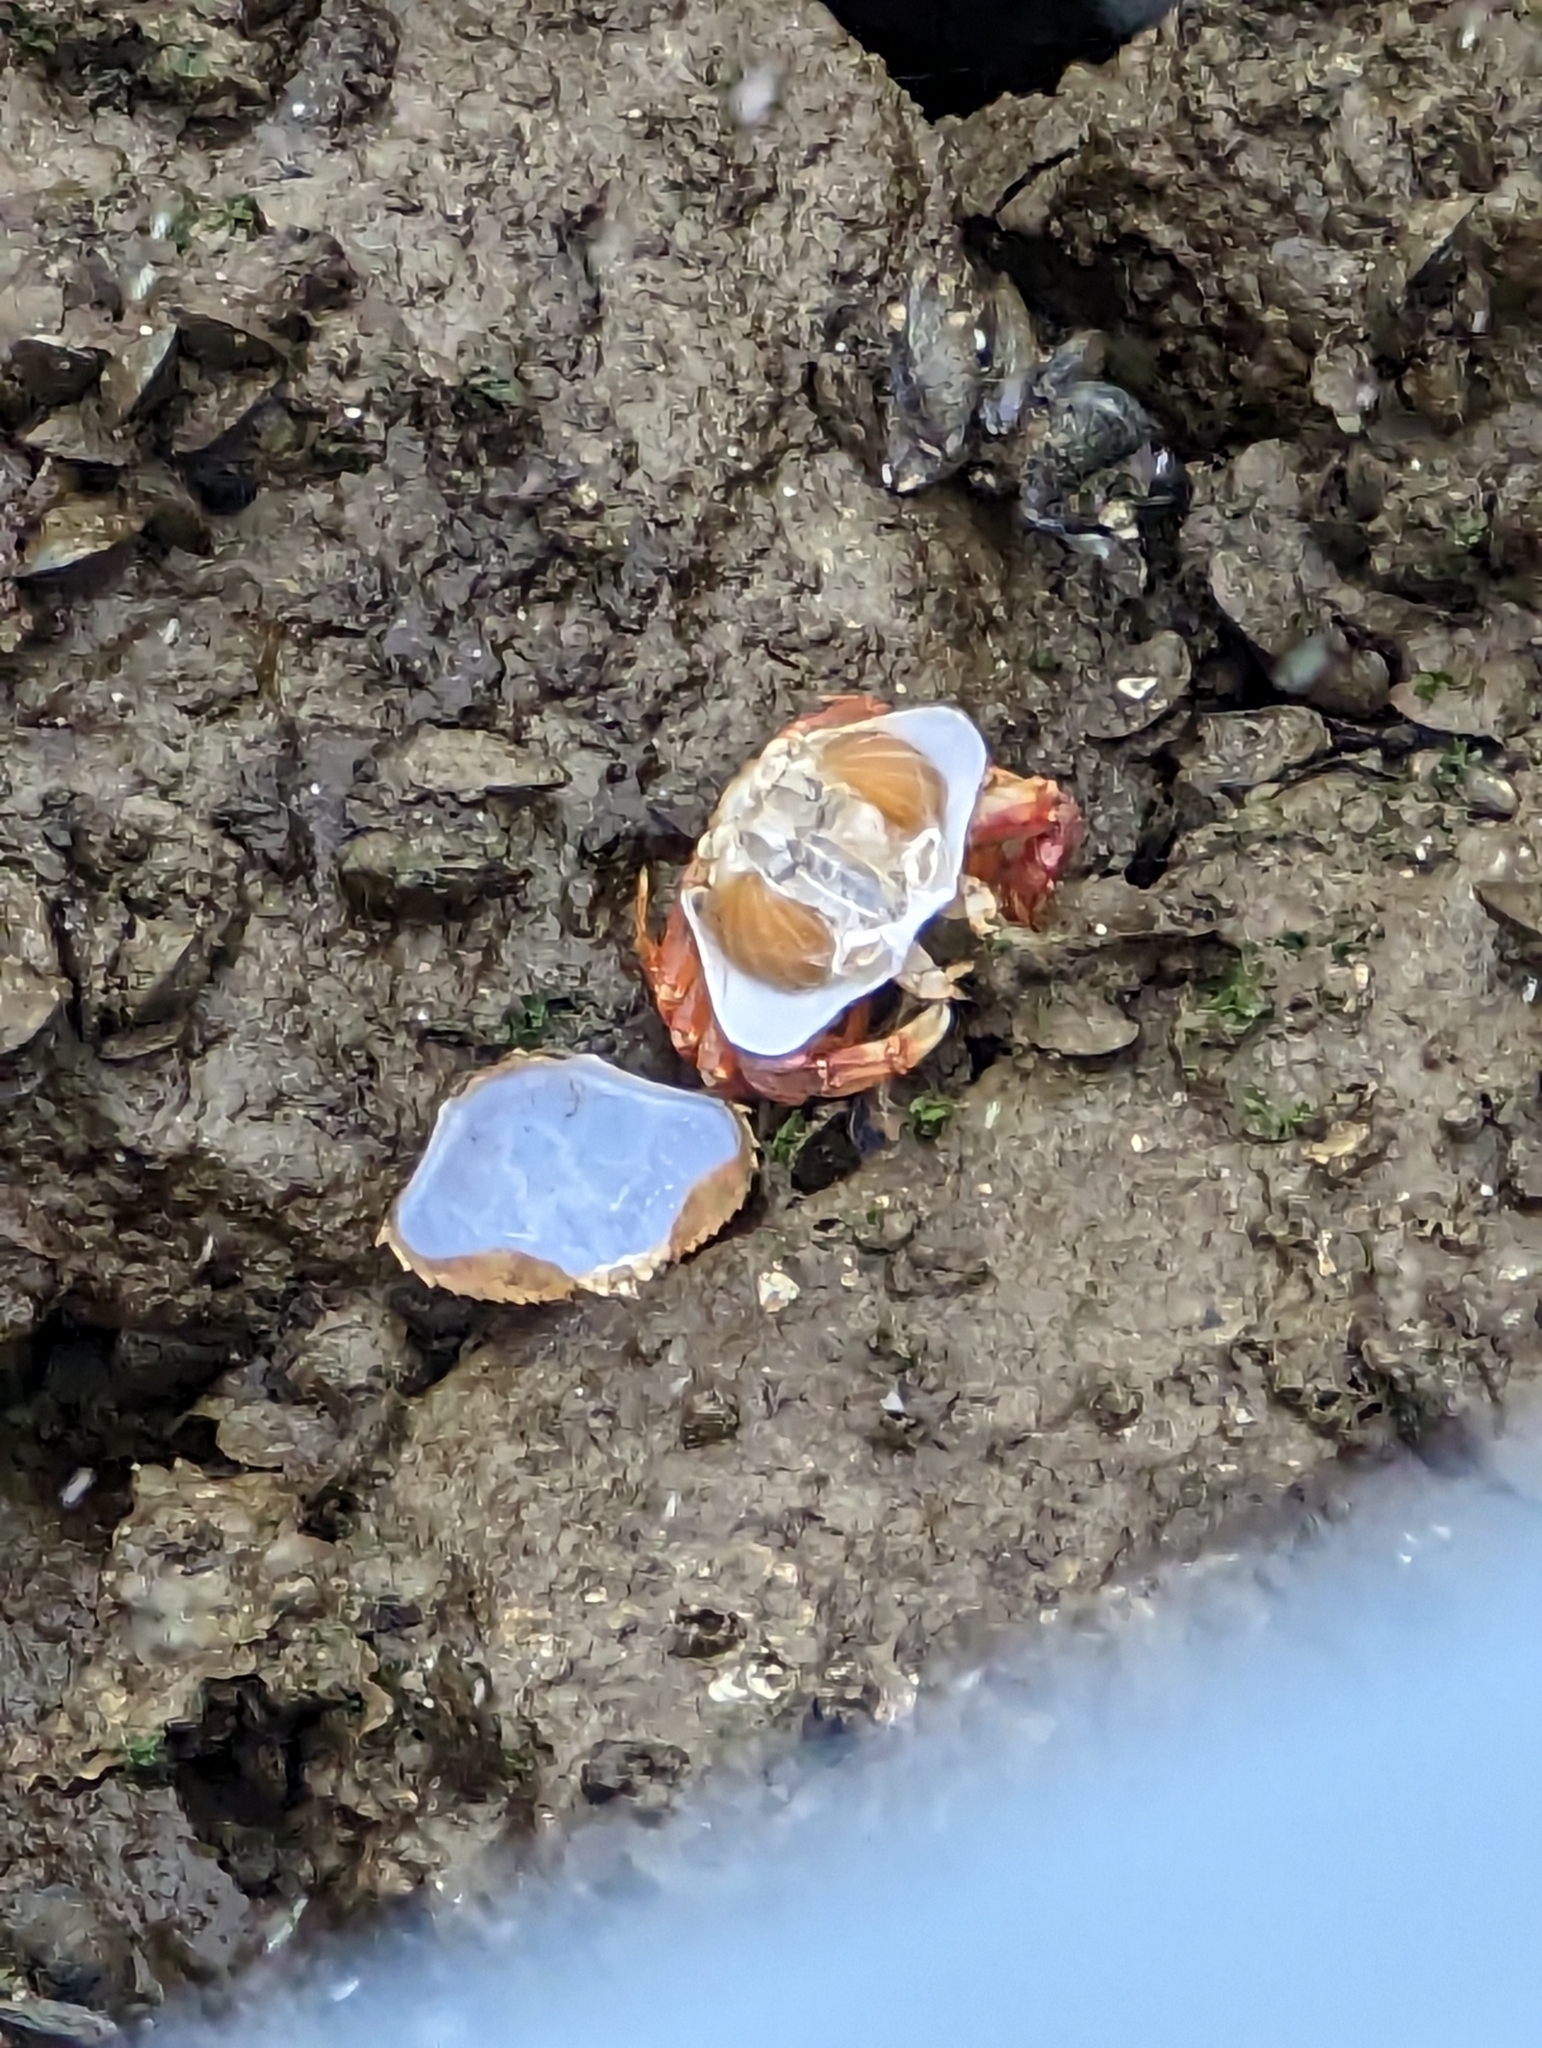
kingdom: Animalia
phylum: Arthropoda
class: Malacostraca
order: Decapoda
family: Cancridae
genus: Metacarcinus
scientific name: Metacarcinus magister
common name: Californian crab
